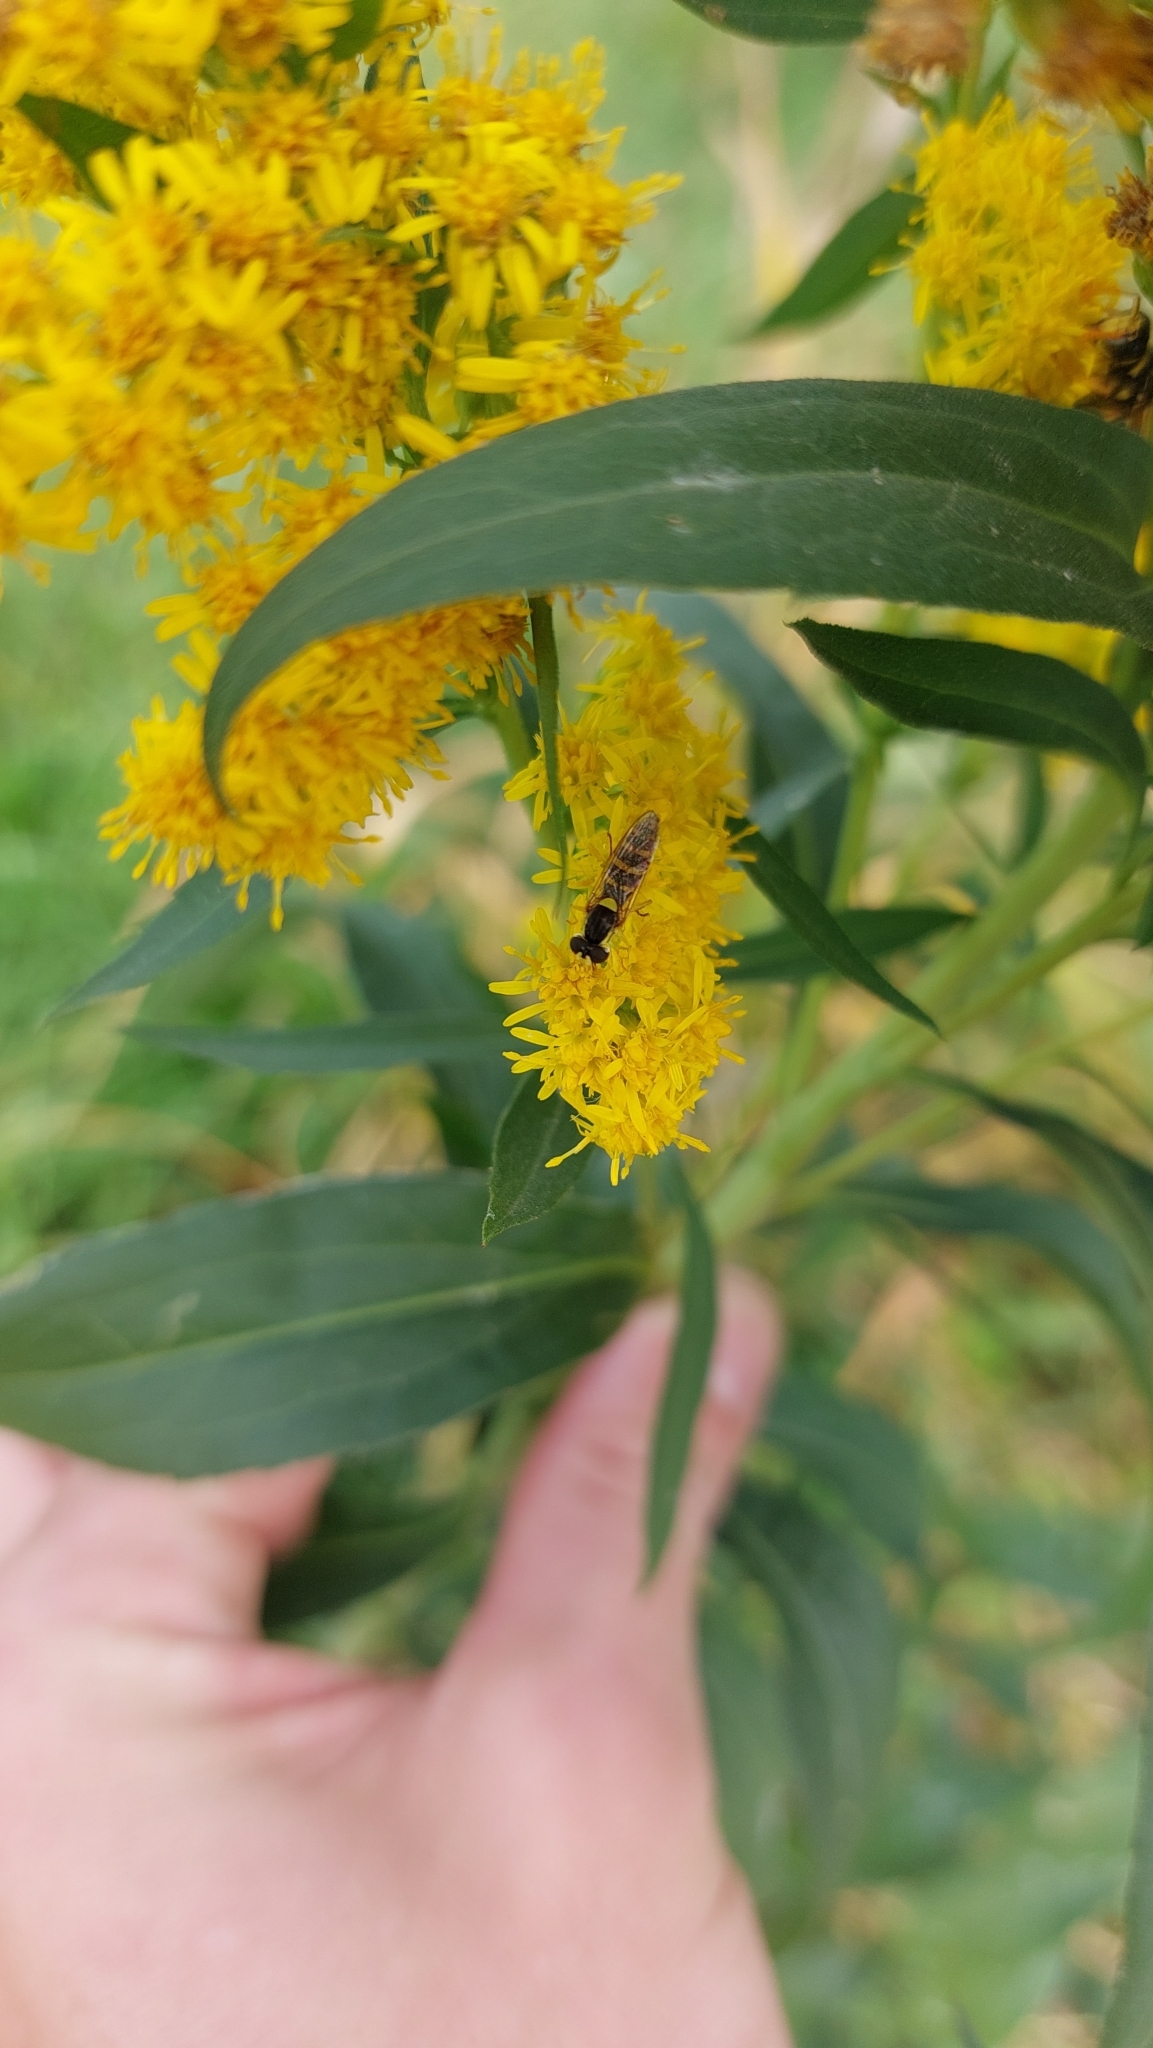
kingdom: Animalia
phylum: Arthropoda
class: Insecta
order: Diptera
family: Syrphidae
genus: Sphaerophoria
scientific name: Sphaerophoria
